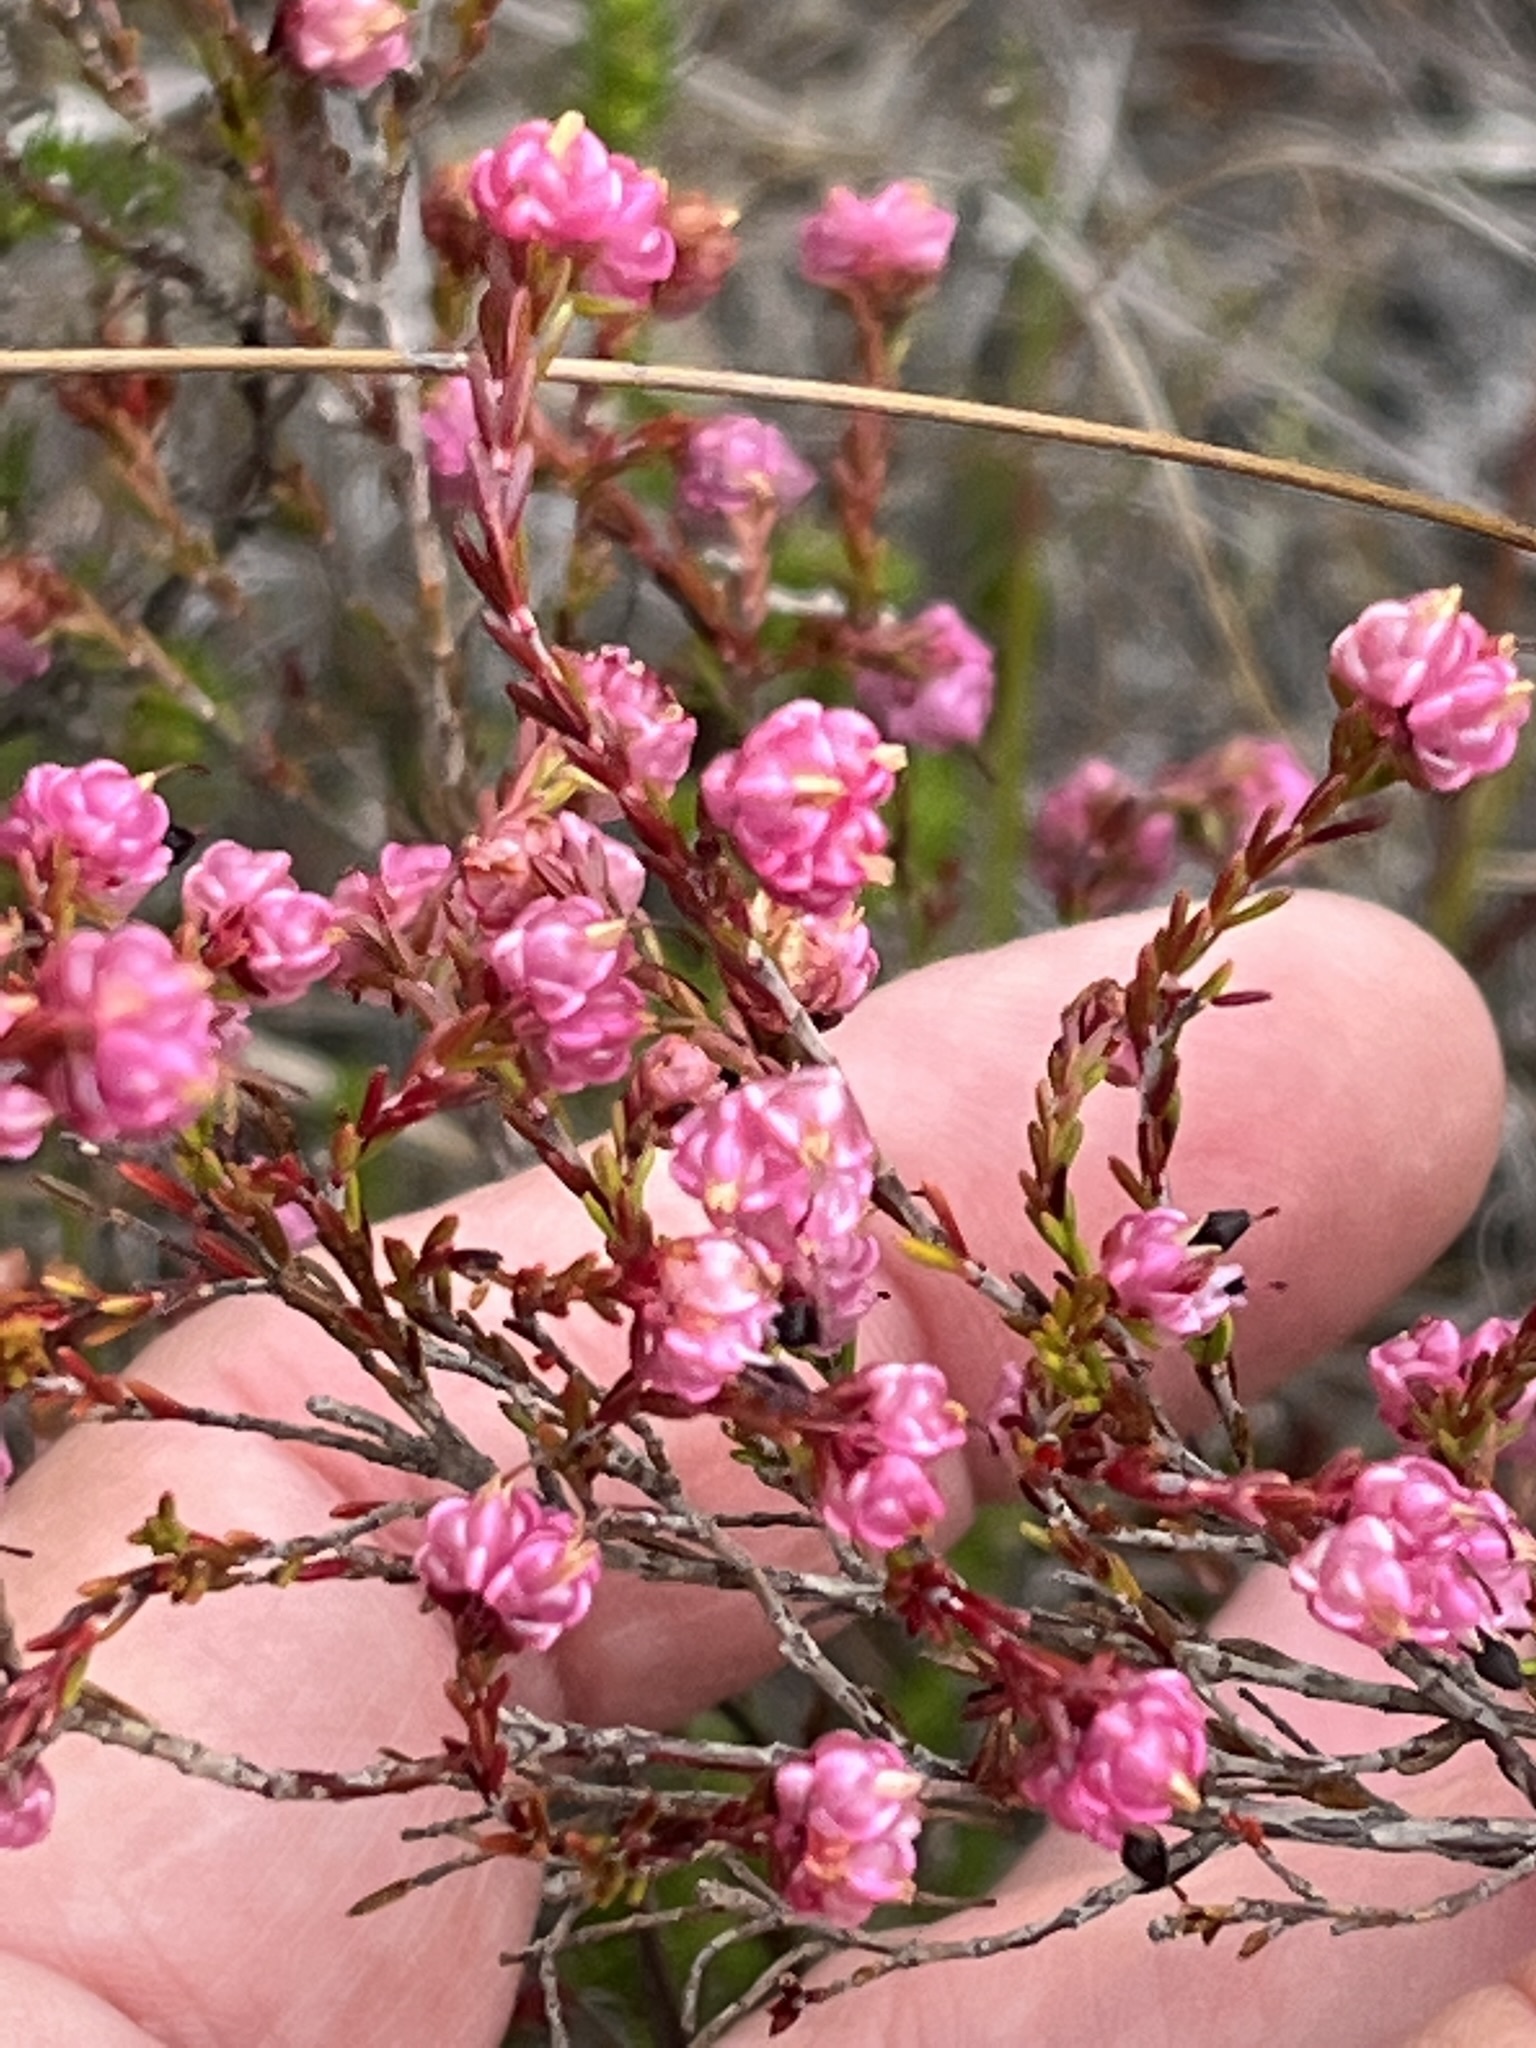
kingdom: Plantae
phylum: Tracheophyta
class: Magnoliopsida
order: Ericales
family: Ericaceae
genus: Erica
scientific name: Erica spumosa
